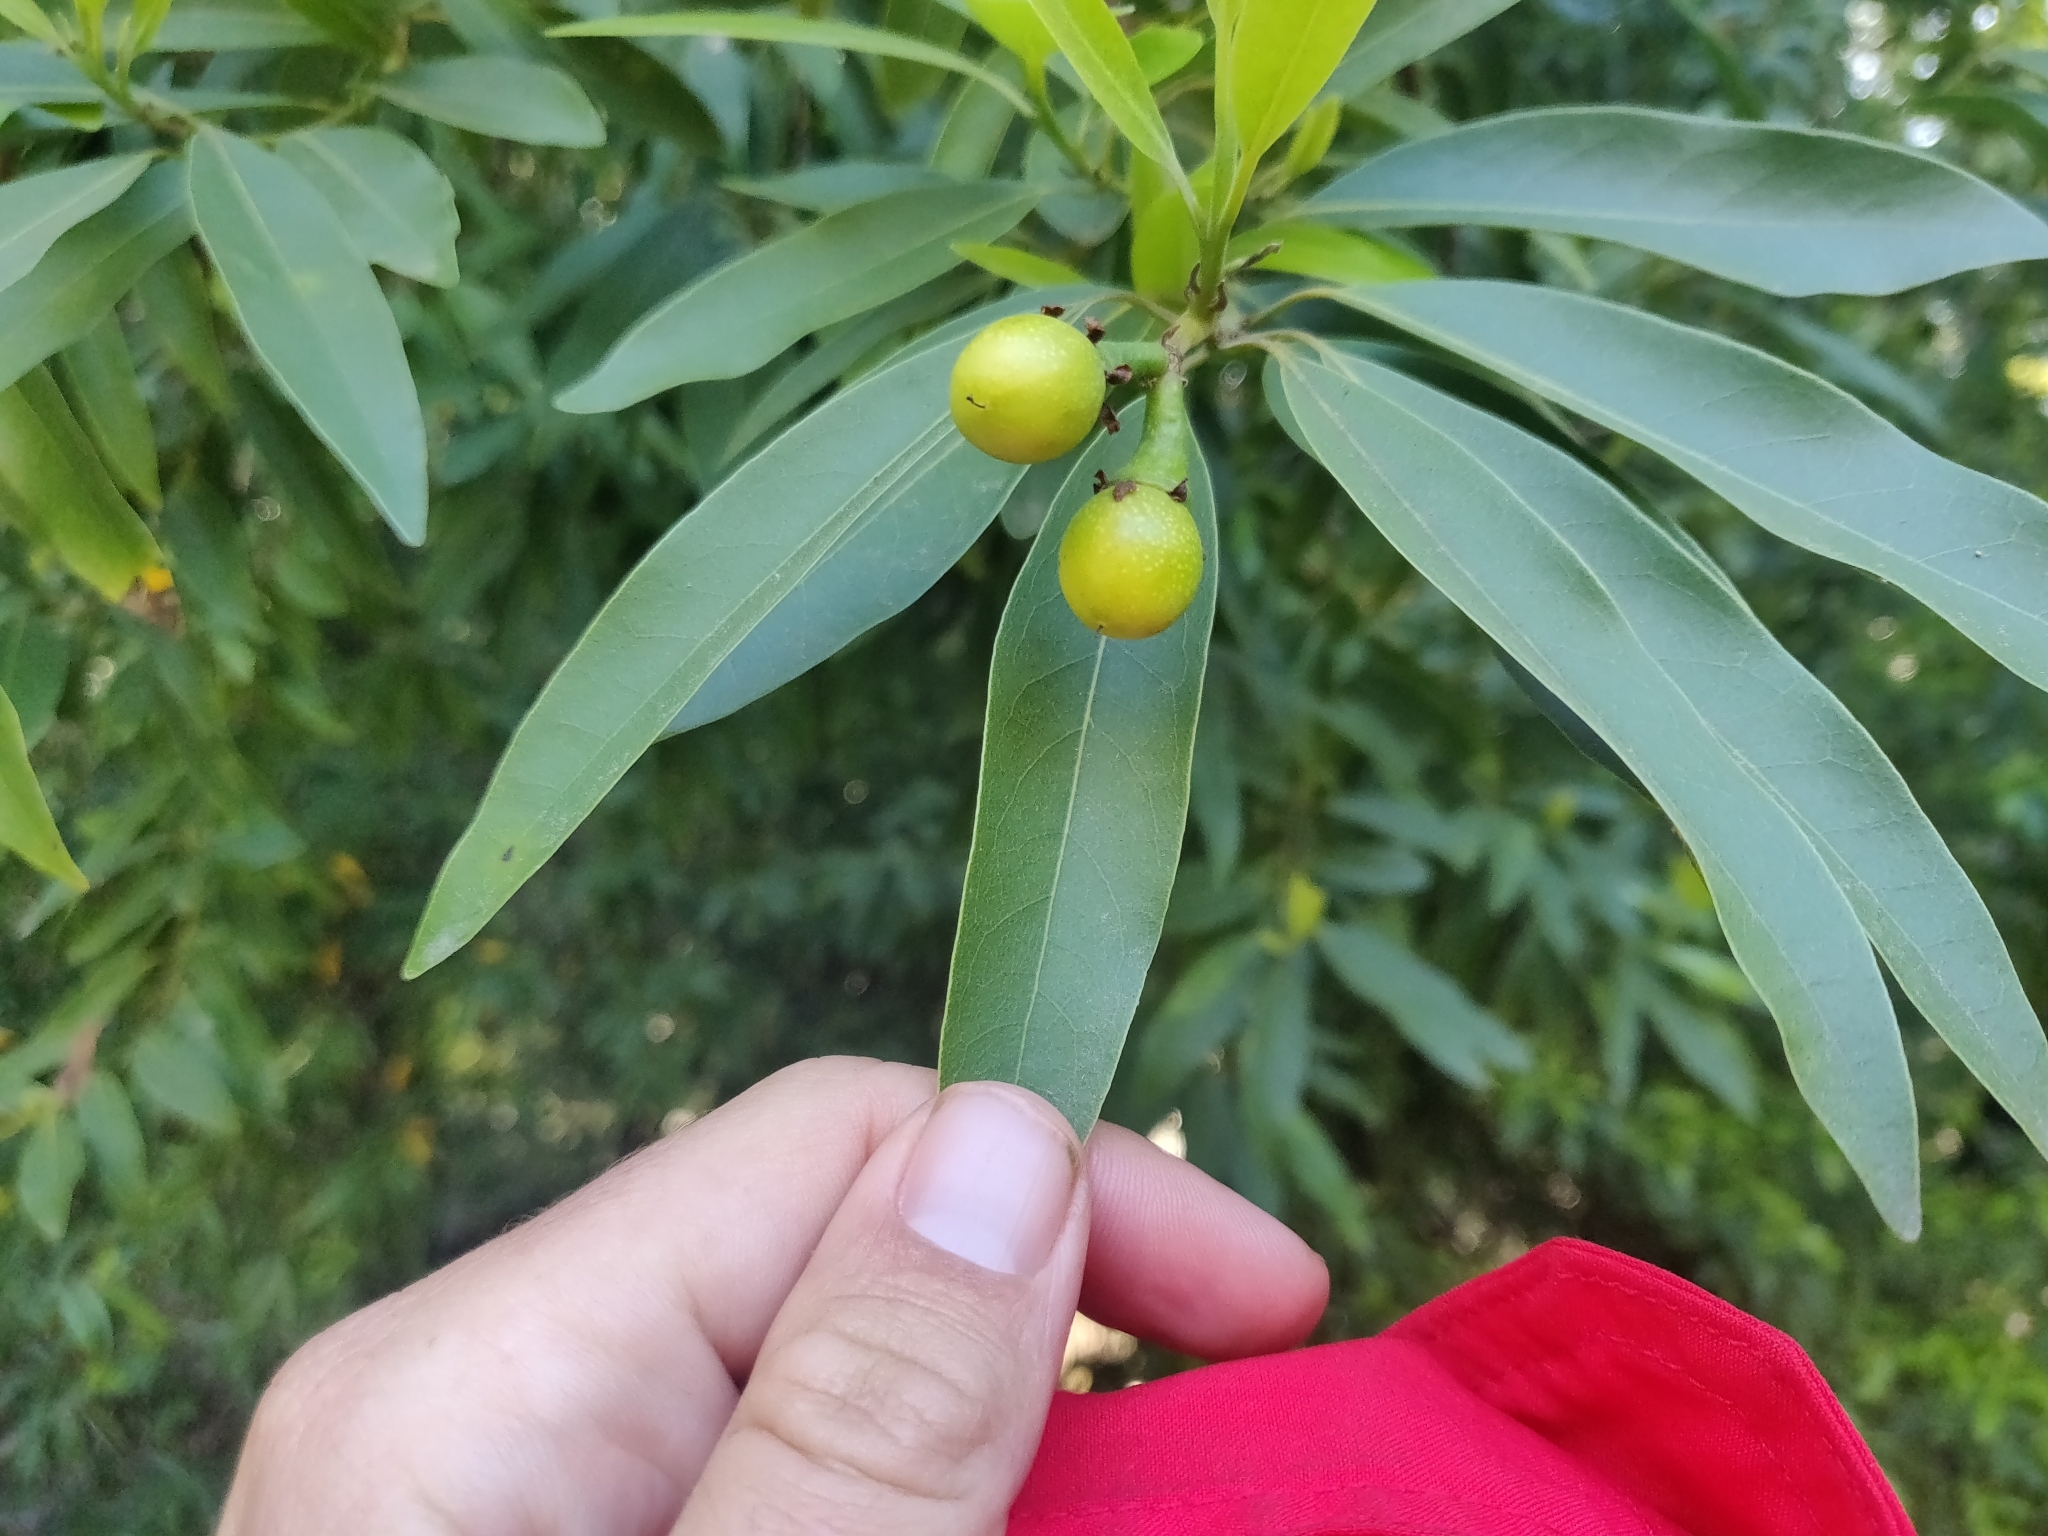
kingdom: Plantae
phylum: Tracheophyta
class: Magnoliopsida
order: Laurales
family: Lauraceae
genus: Umbellularia
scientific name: Umbellularia californica
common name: California bay
